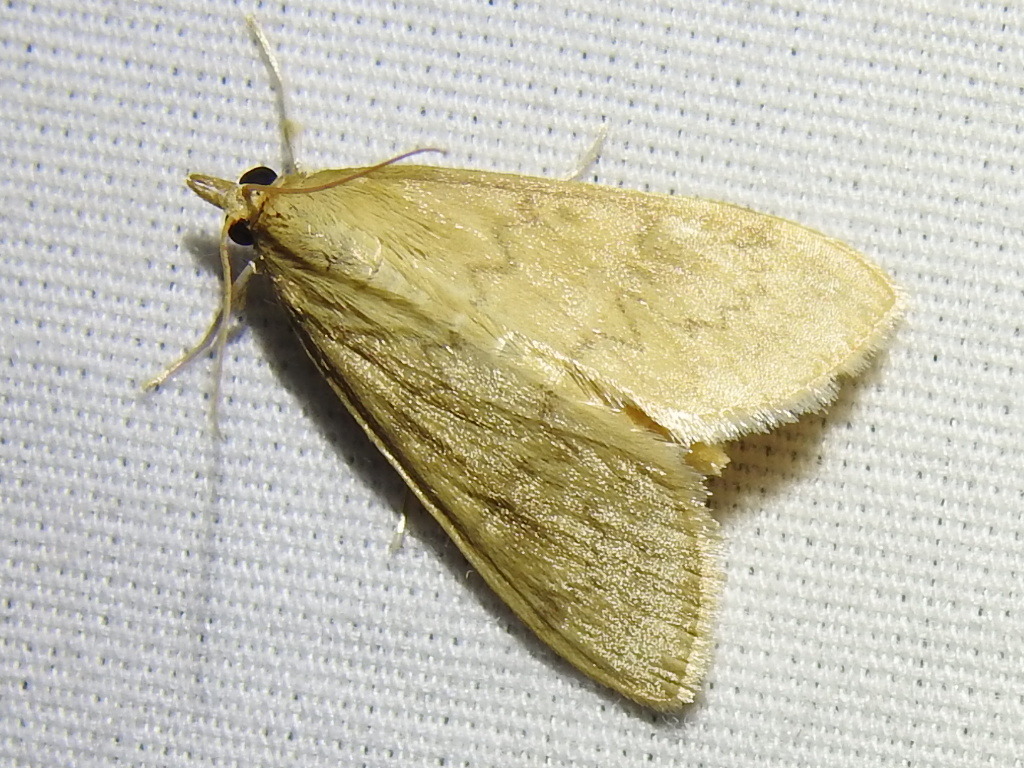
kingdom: Animalia
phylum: Arthropoda
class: Insecta
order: Lepidoptera
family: Crambidae
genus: Ostrinia
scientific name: Ostrinia penitalis
